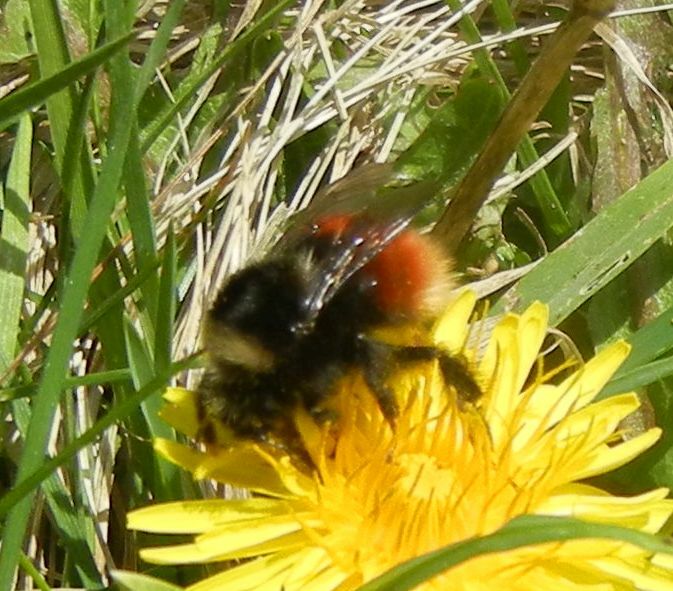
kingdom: Animalia
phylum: Arthropoda
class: Insecta
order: Hymenoptera
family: Apidae
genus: Bombus
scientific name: Bombus monticola
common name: Bilberry humble-bee
